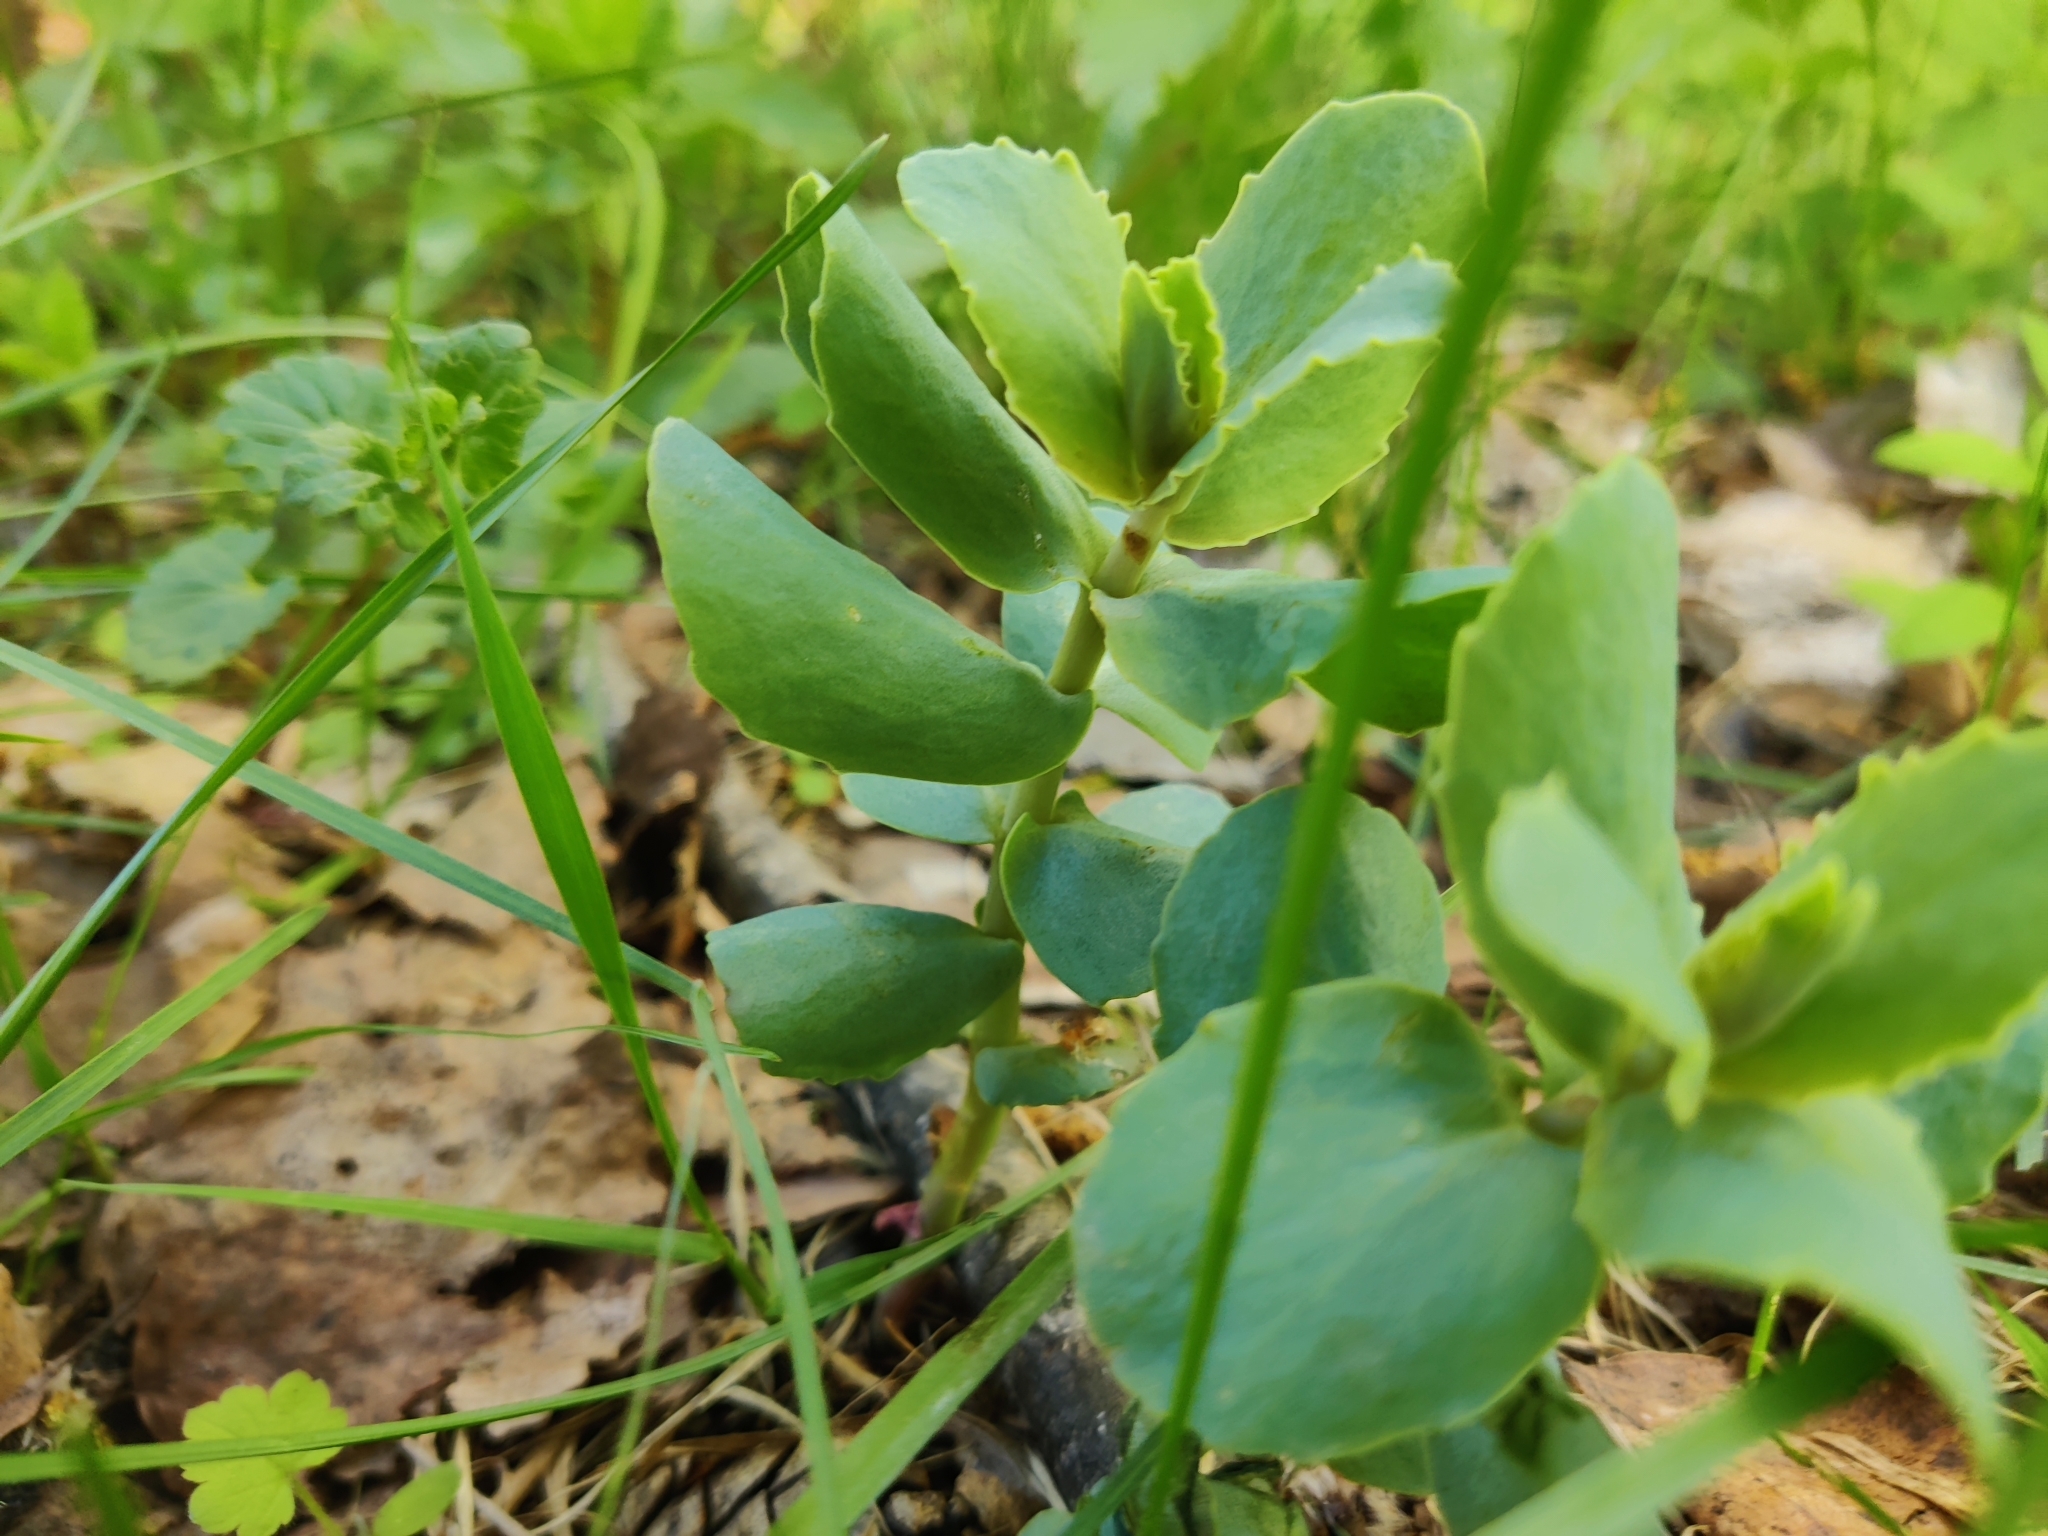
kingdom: Plantae
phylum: Tracheophyta
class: Magnoliopsida
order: Saxifragales
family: Crassulaceae
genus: Hylotelephium
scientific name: Hylotelephium maximum
